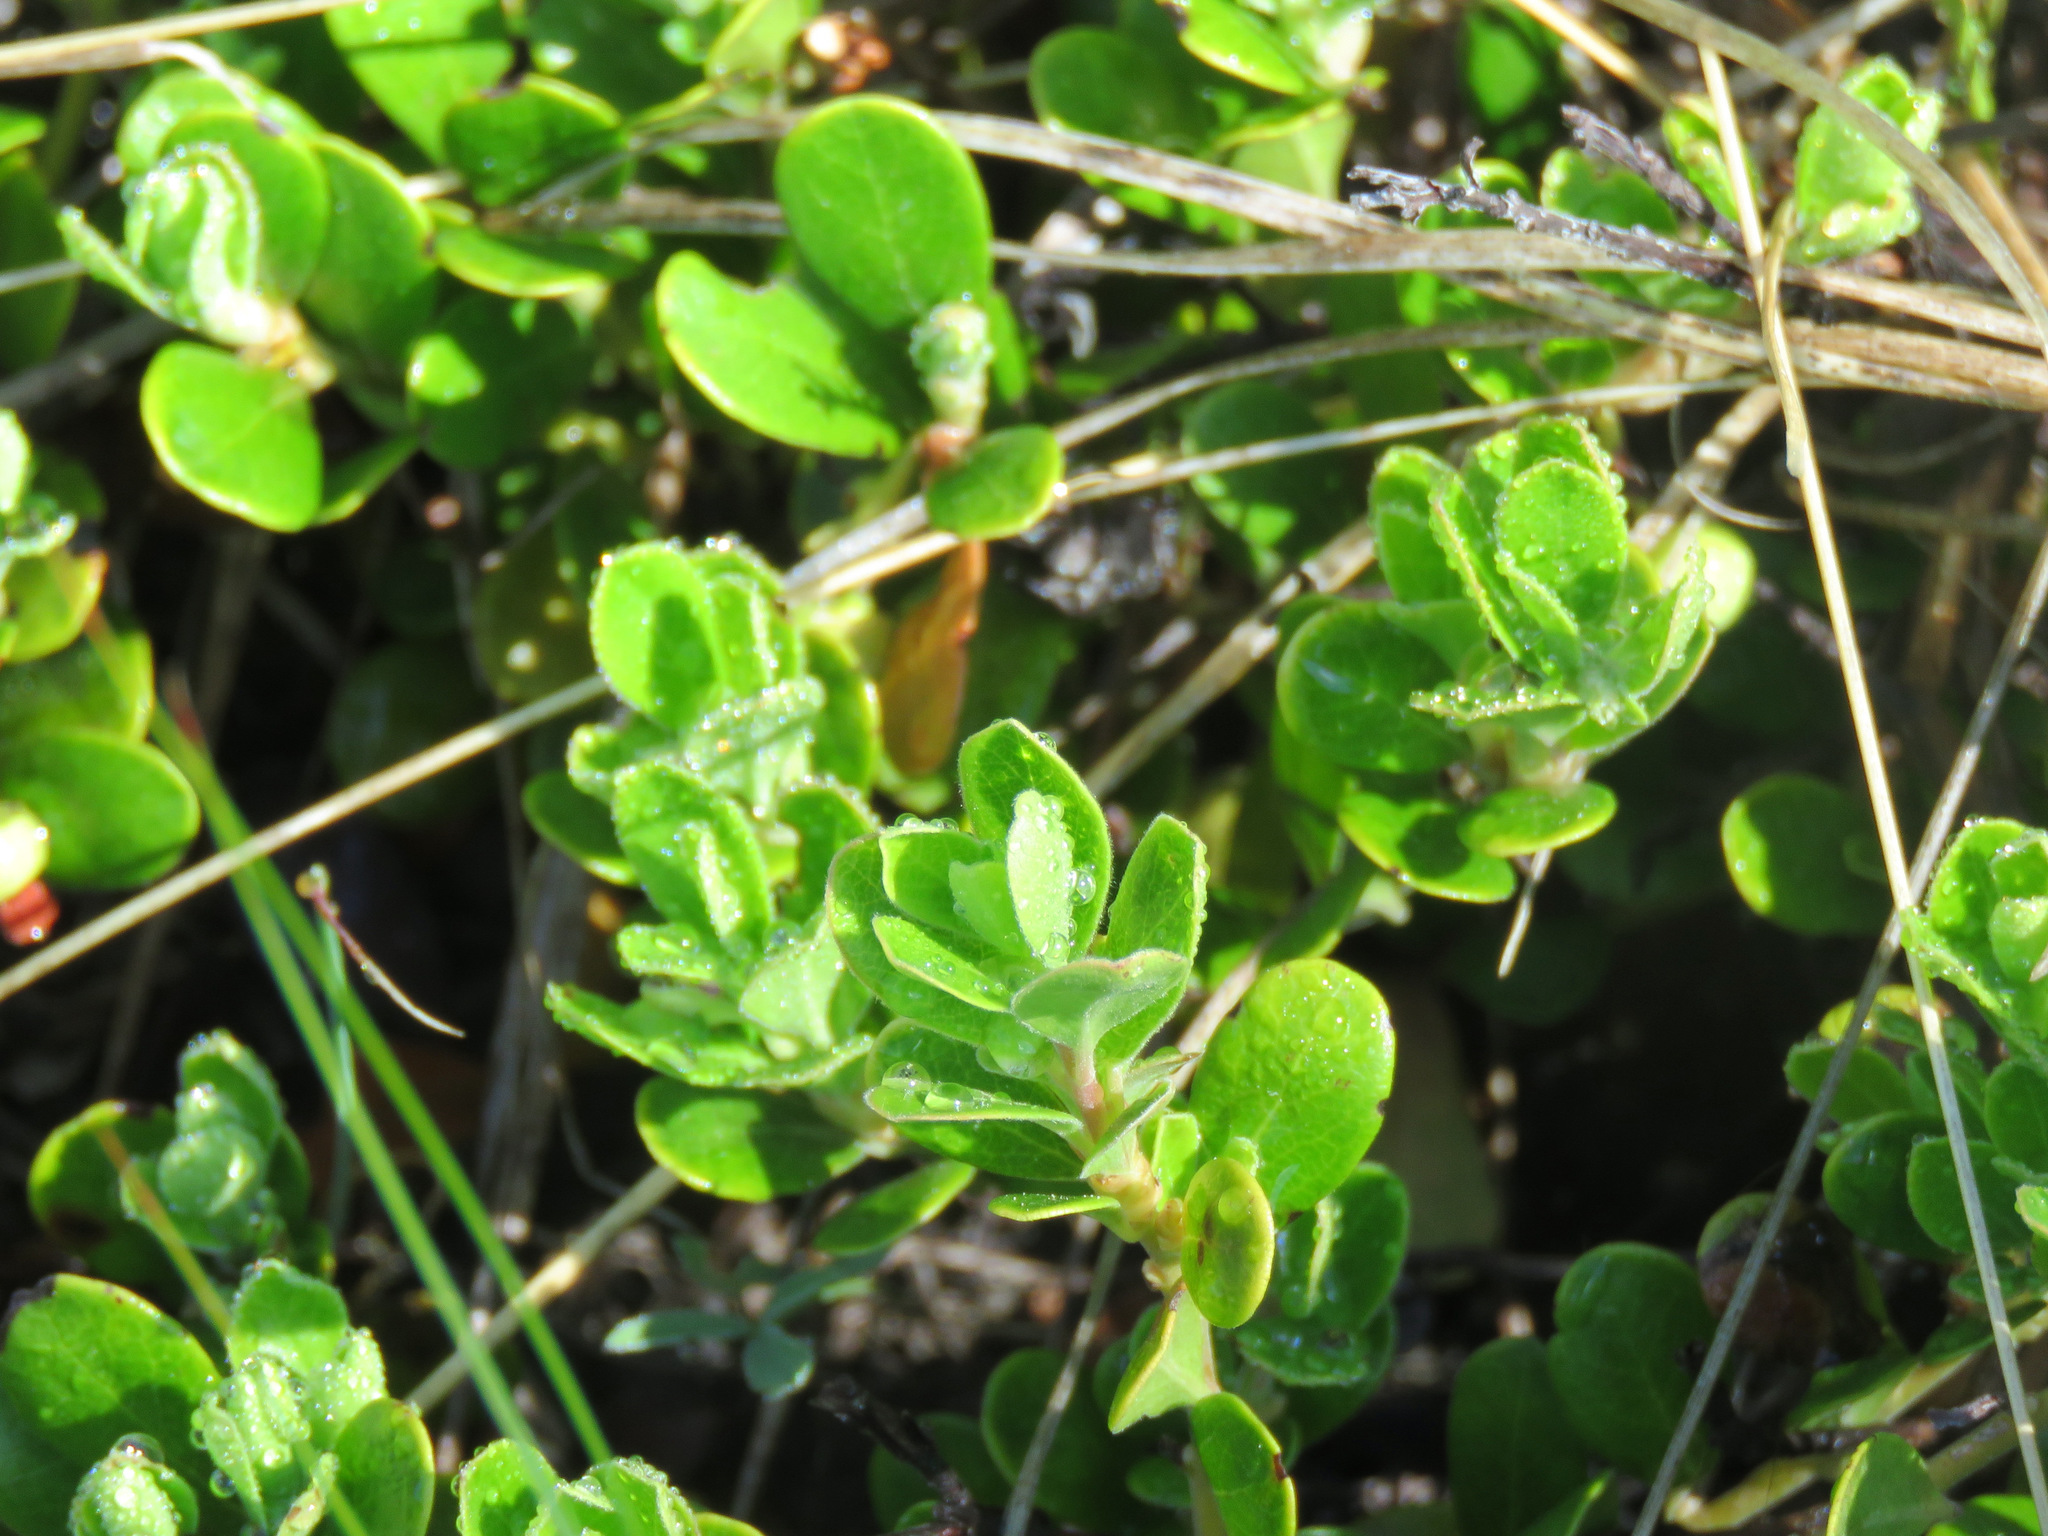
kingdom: Plantae
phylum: Tracheophyta
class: Magnoliopsida
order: Ericales
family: Ericaceae
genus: Arctostaphylos
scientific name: Arctostaphylos uva-ursi
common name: Bearberry
